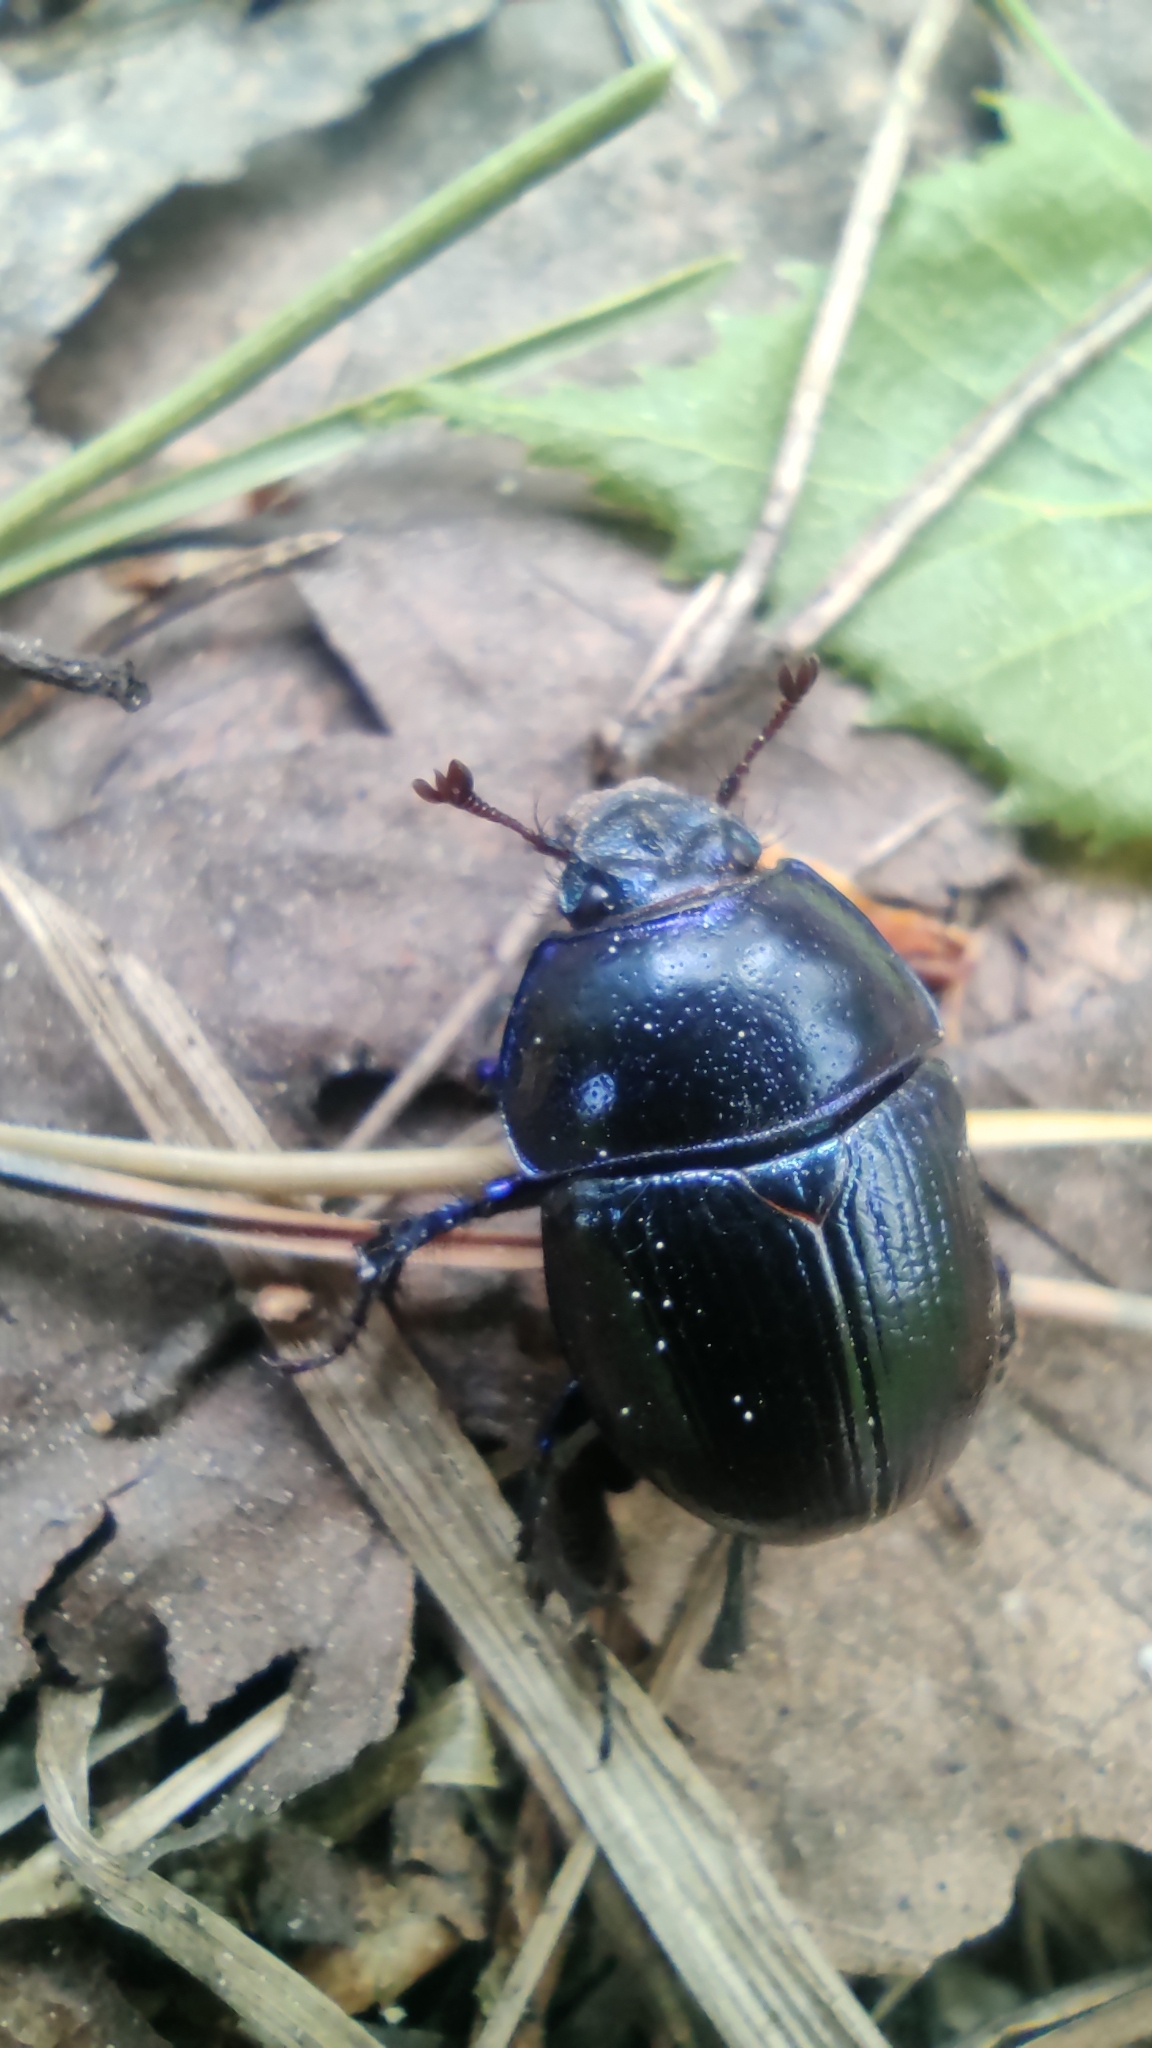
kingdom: Animalia
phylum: Arthropoda
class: Insecta
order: Coleoptera
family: Geotrupidae
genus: Anoplotrupes
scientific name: Anoplotrupes stercorosus
